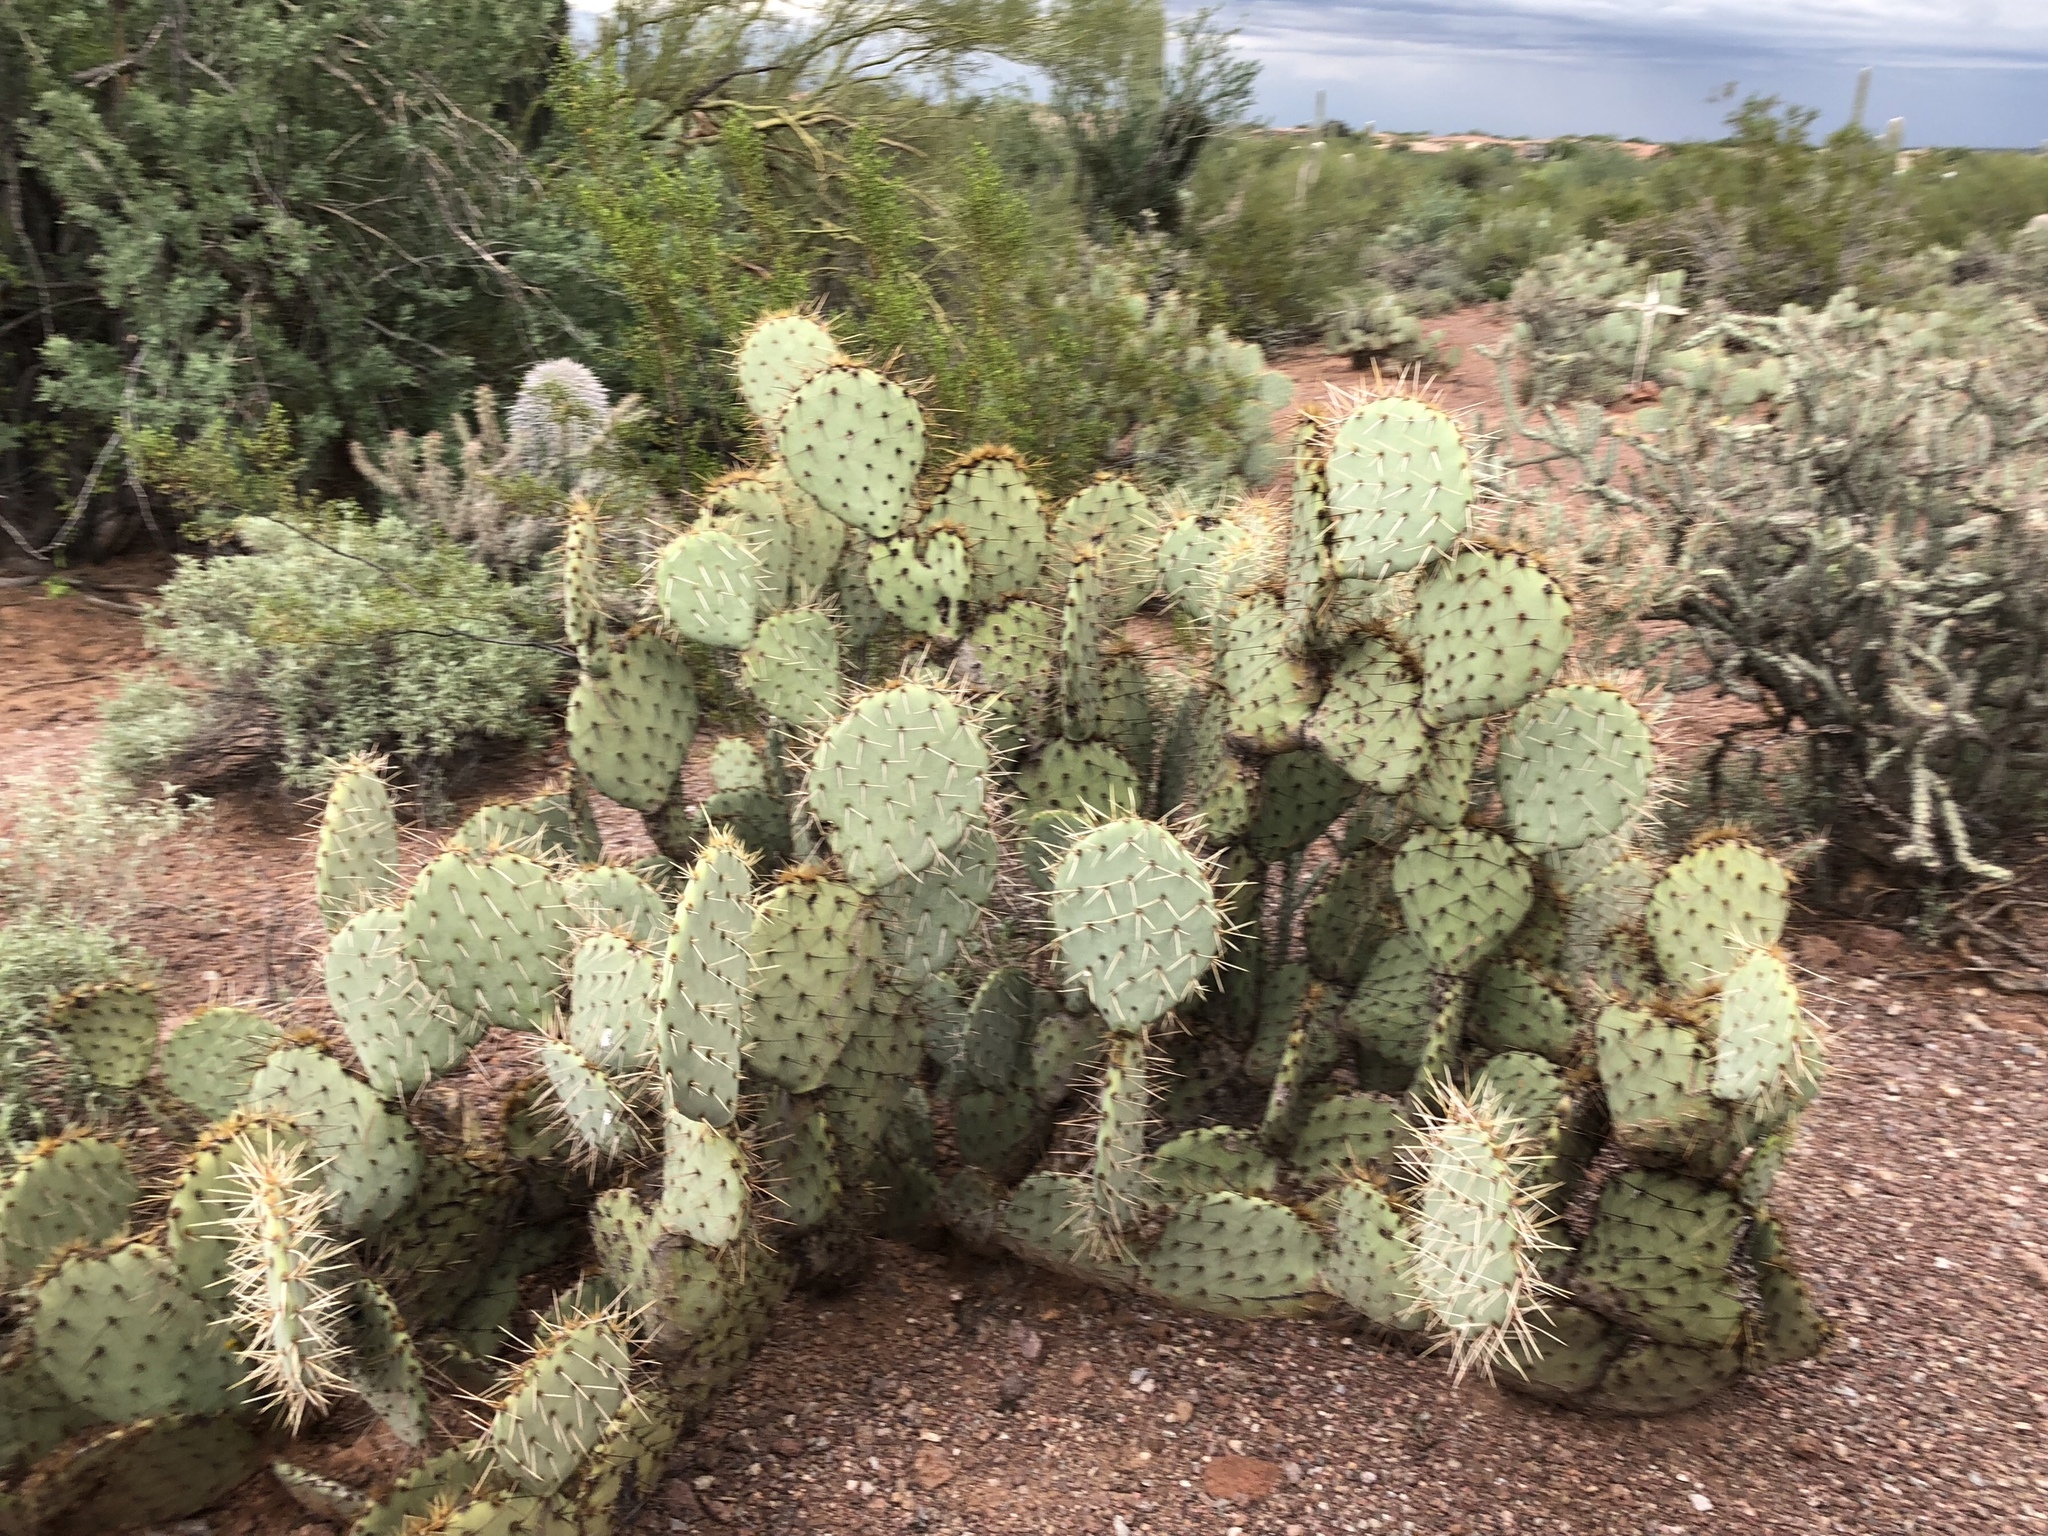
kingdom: Plantae
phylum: Tracheophyta
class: Magnoliopsida
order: Caryophyllales
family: Cactaceae
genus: Opuntia
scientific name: Opuntia engelmannii
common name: Cactus-apple
